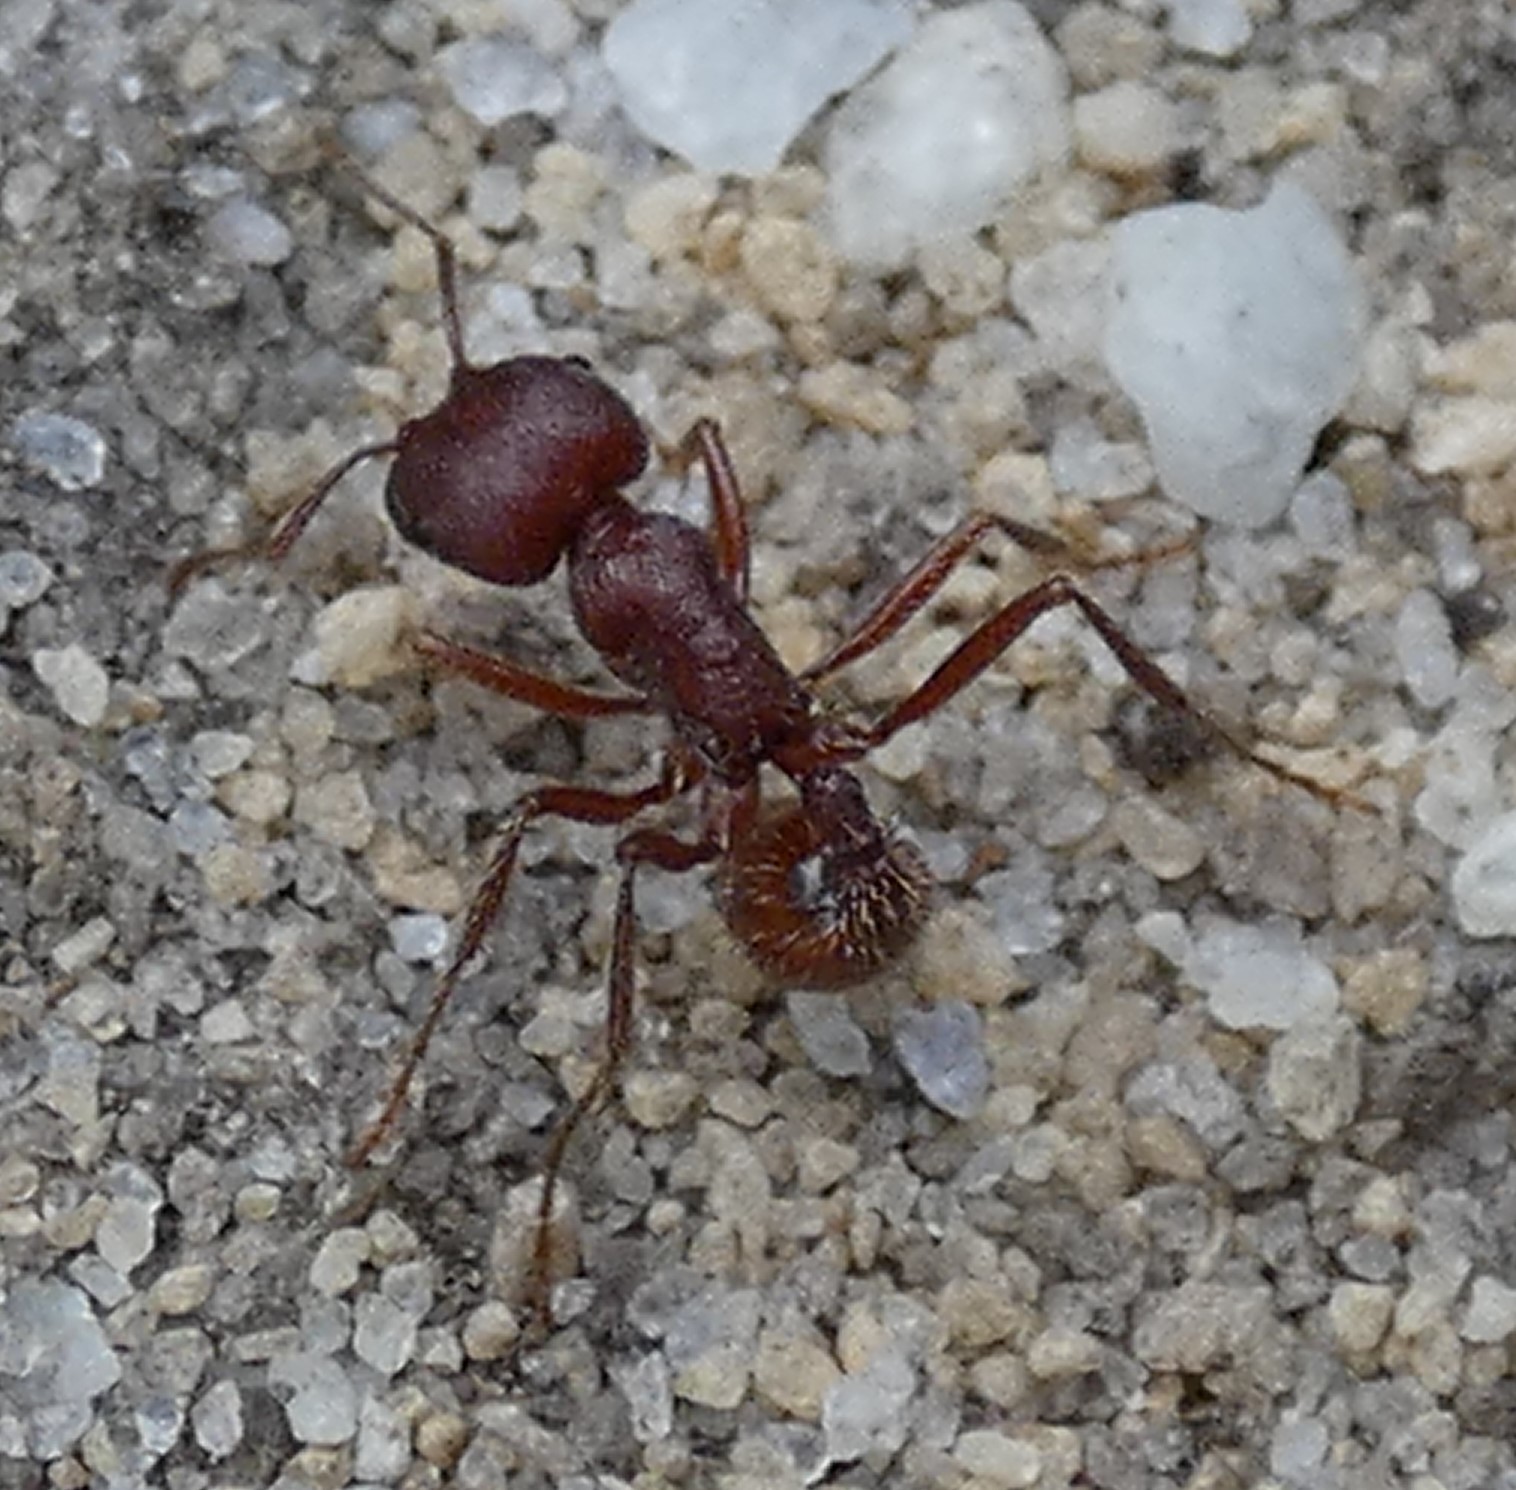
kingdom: Animalia
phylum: Arthropoda
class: Insecta
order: Hymenoptera
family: Formicidae
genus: Pogonomyrmex
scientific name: Pogonomyrmex badius
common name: Florida harvester ant
